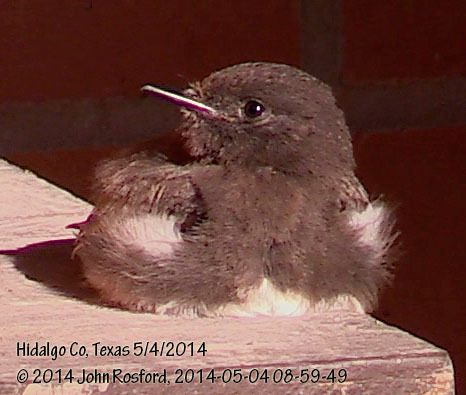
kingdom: Animalia
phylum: Chordata
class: Aves
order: Passeriformes
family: Tyrannidae
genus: Sayornis
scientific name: Sayornis nigricans
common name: Black phoebe
